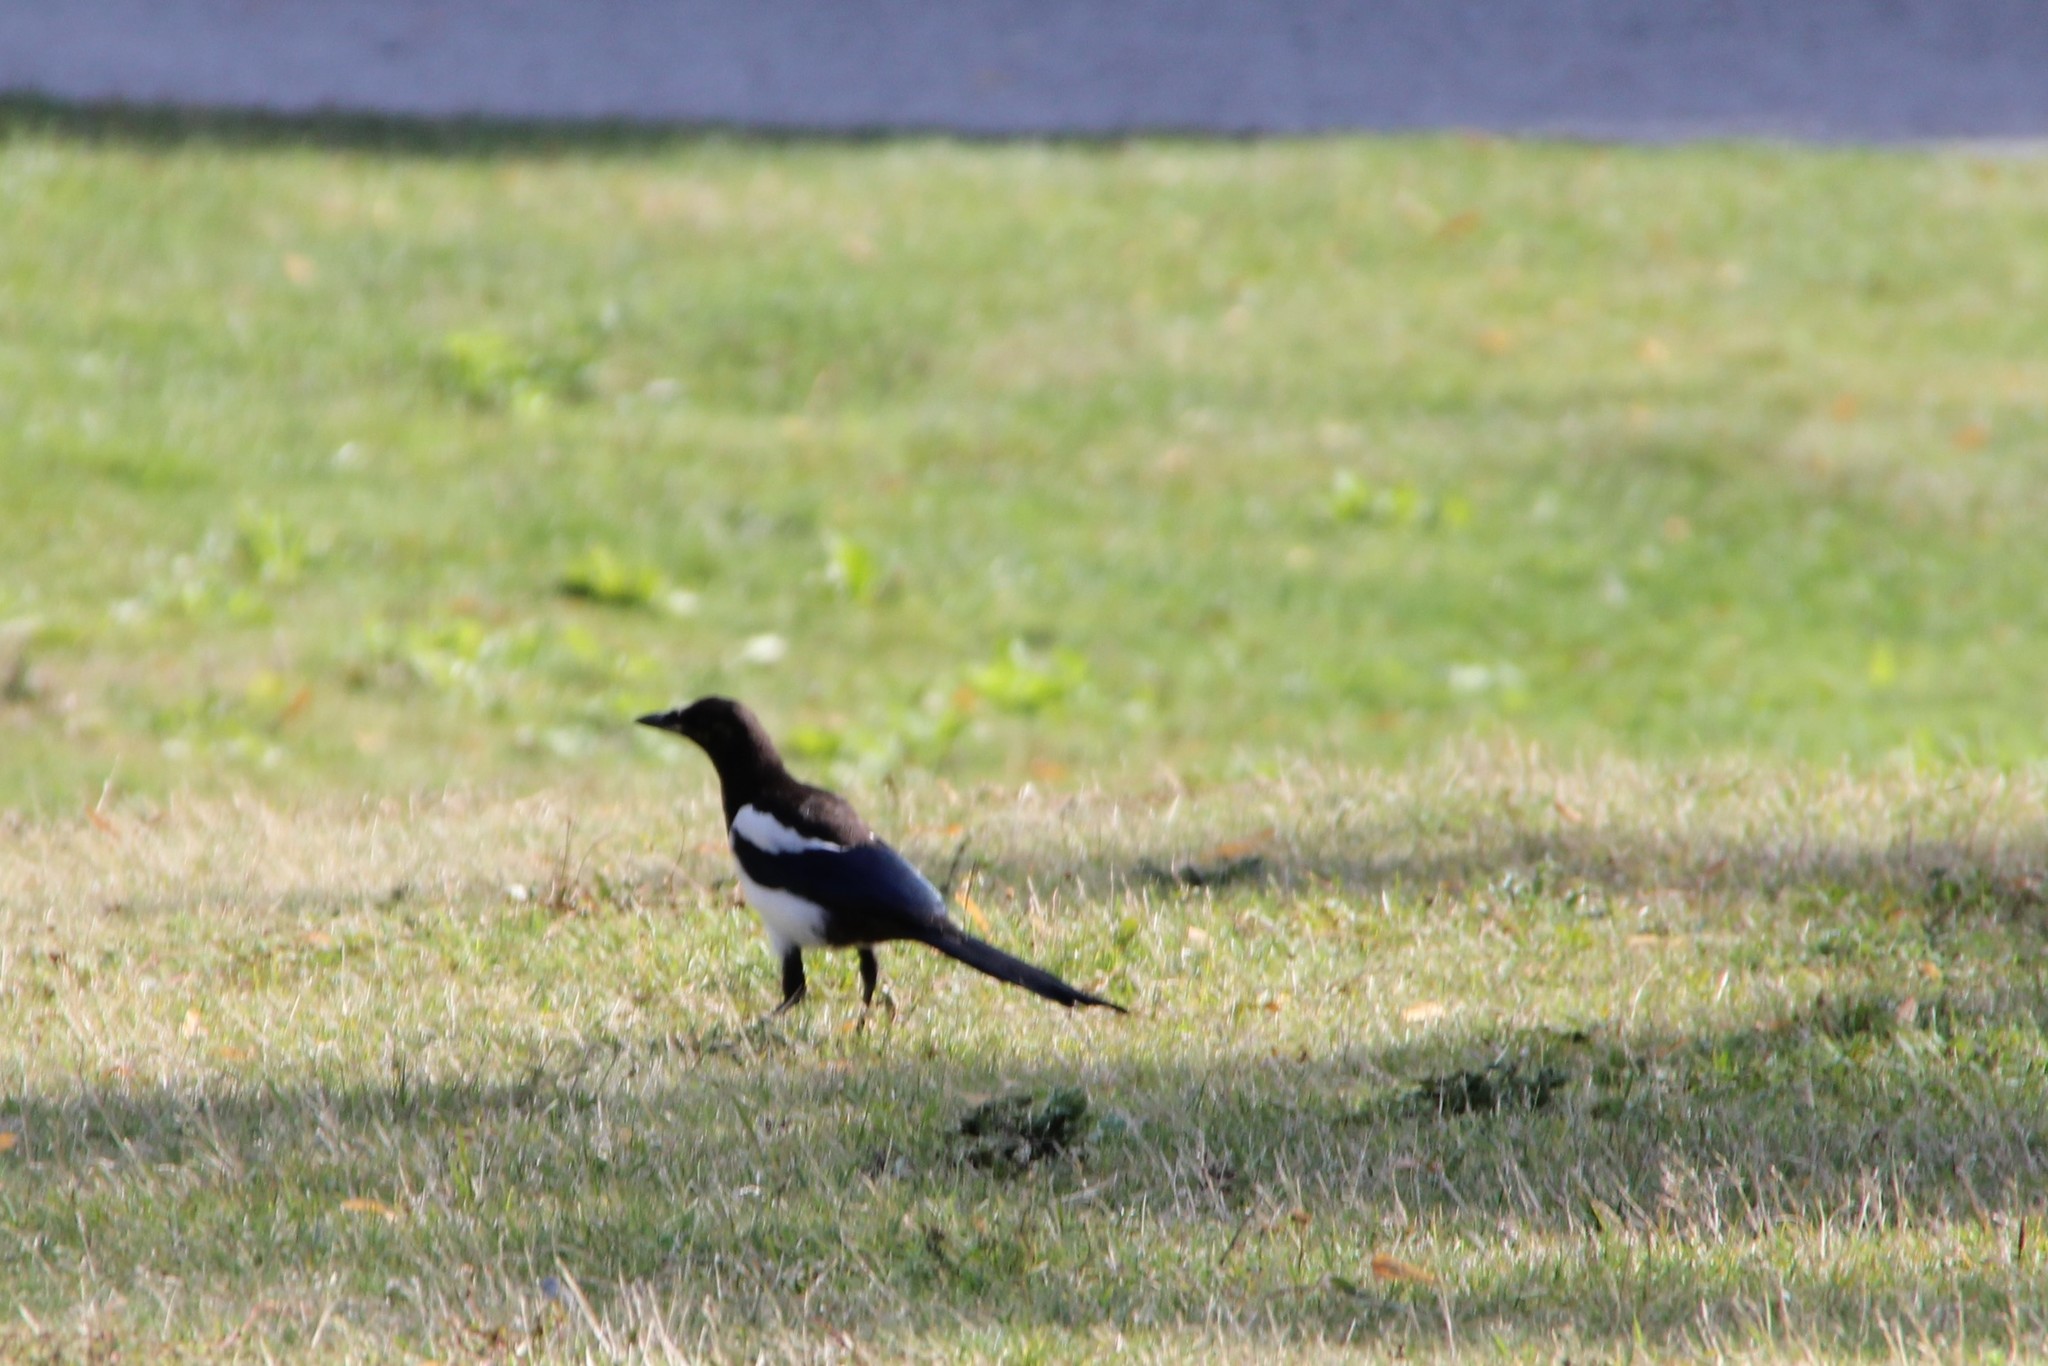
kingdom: Animalia
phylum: Chordata
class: Aves
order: Passeriformes
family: Corvidae
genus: Pica
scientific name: Pica pica
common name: Eurasian magpie
